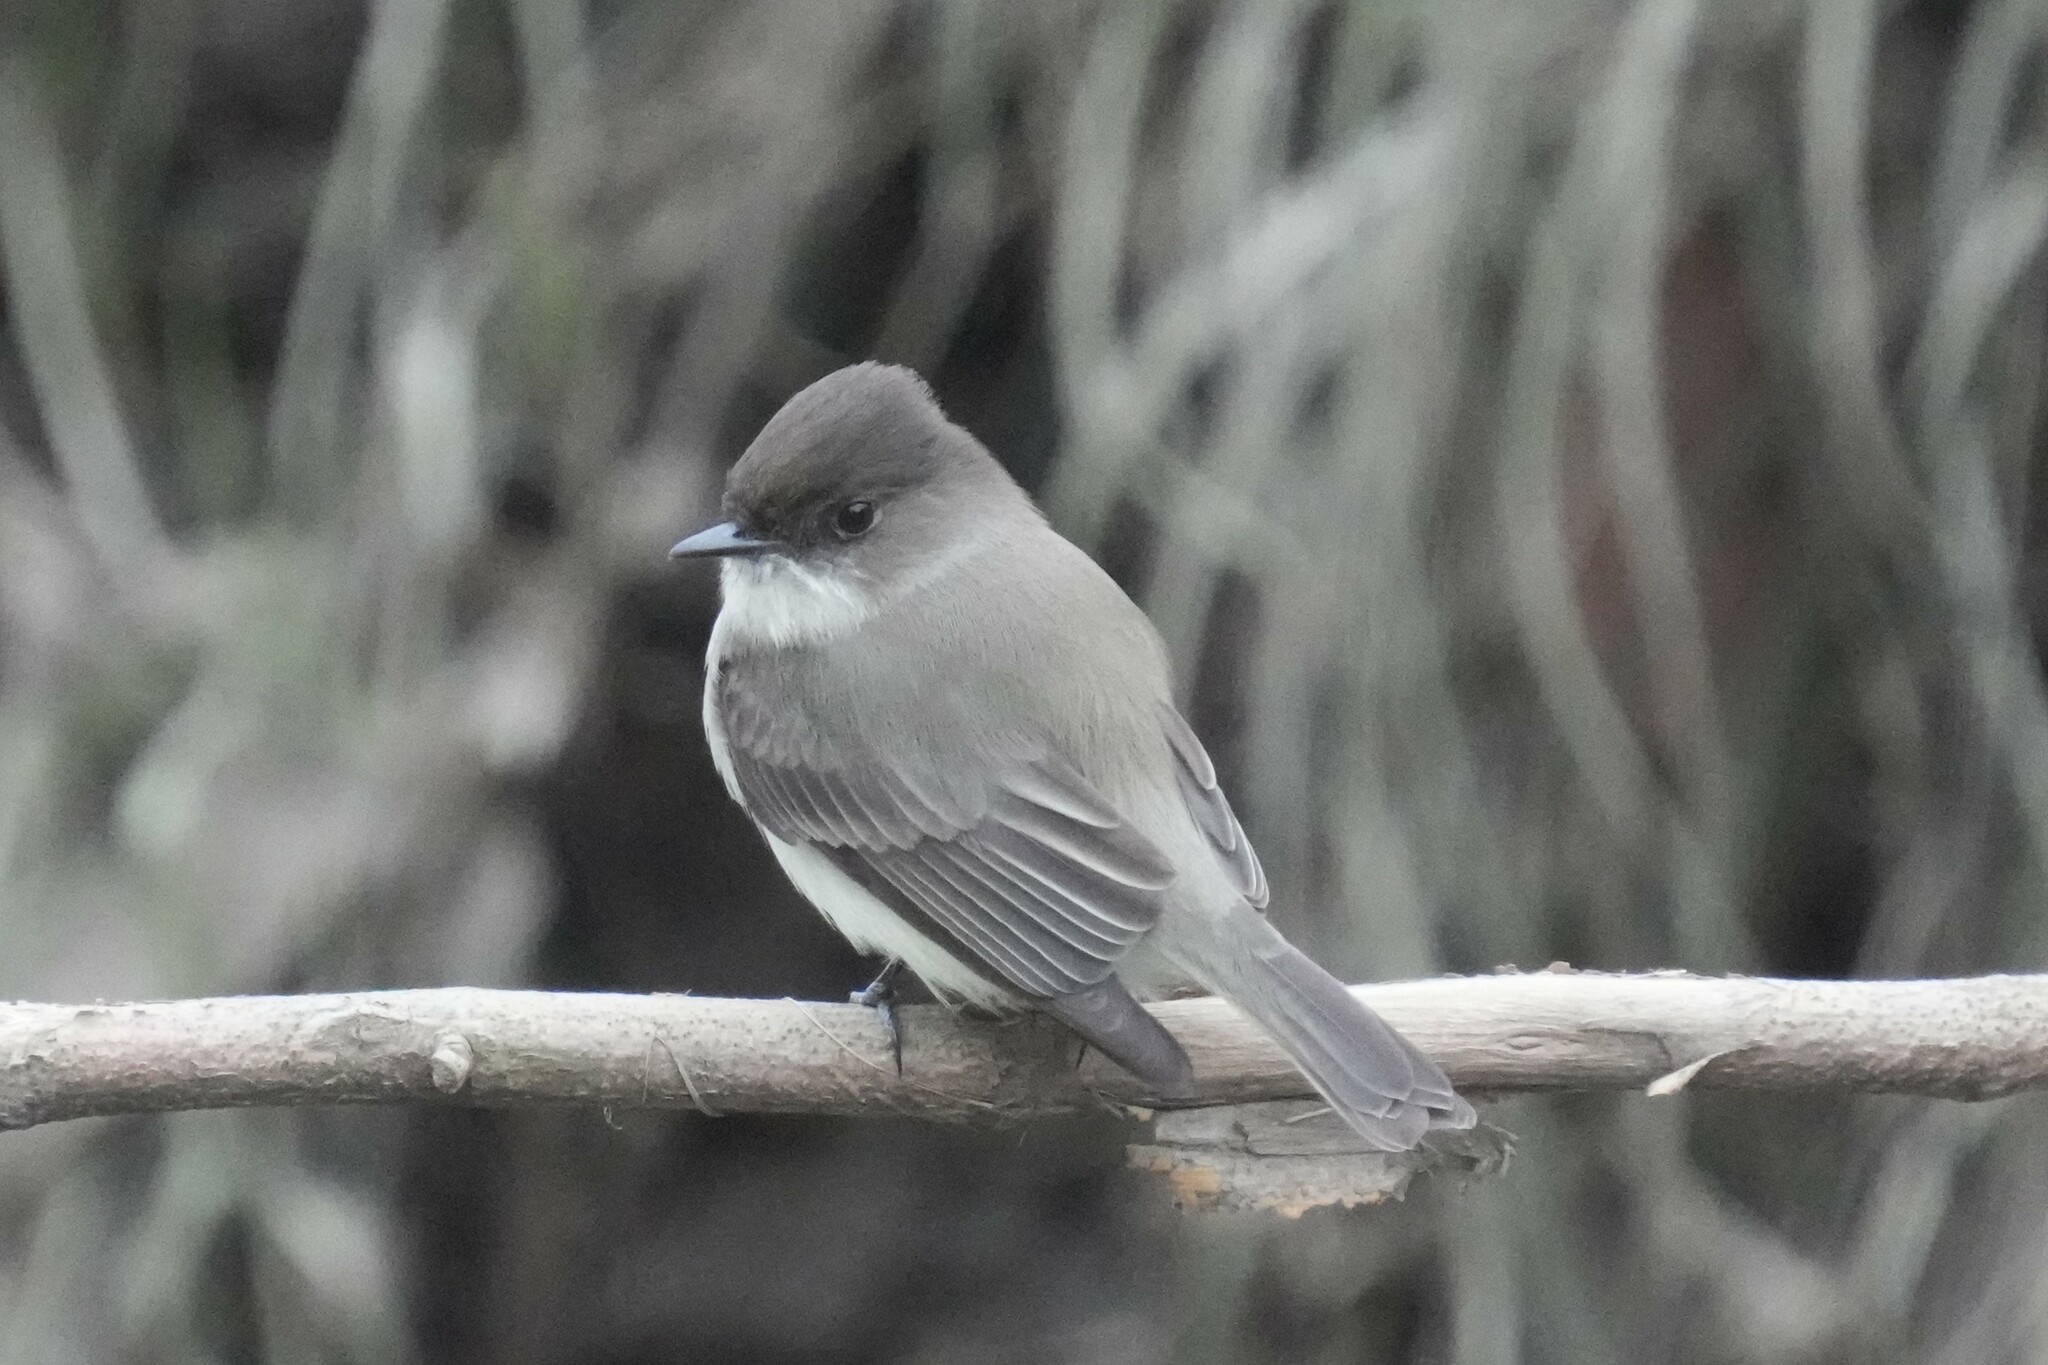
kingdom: Animalia
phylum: Chordata
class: Aves
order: Passeriformes
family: Tyrannidae
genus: Sayornis
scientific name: Sayornis phoebe
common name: Eastern phoebe
